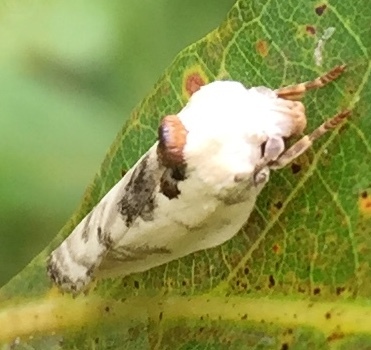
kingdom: Animalia
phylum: Arthropoda
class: Insecta
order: Lepidoptera
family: Depressariidae
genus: Antaeotricha
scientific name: Antaeotricha leucillana
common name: Pale gray bird-dropping moth
